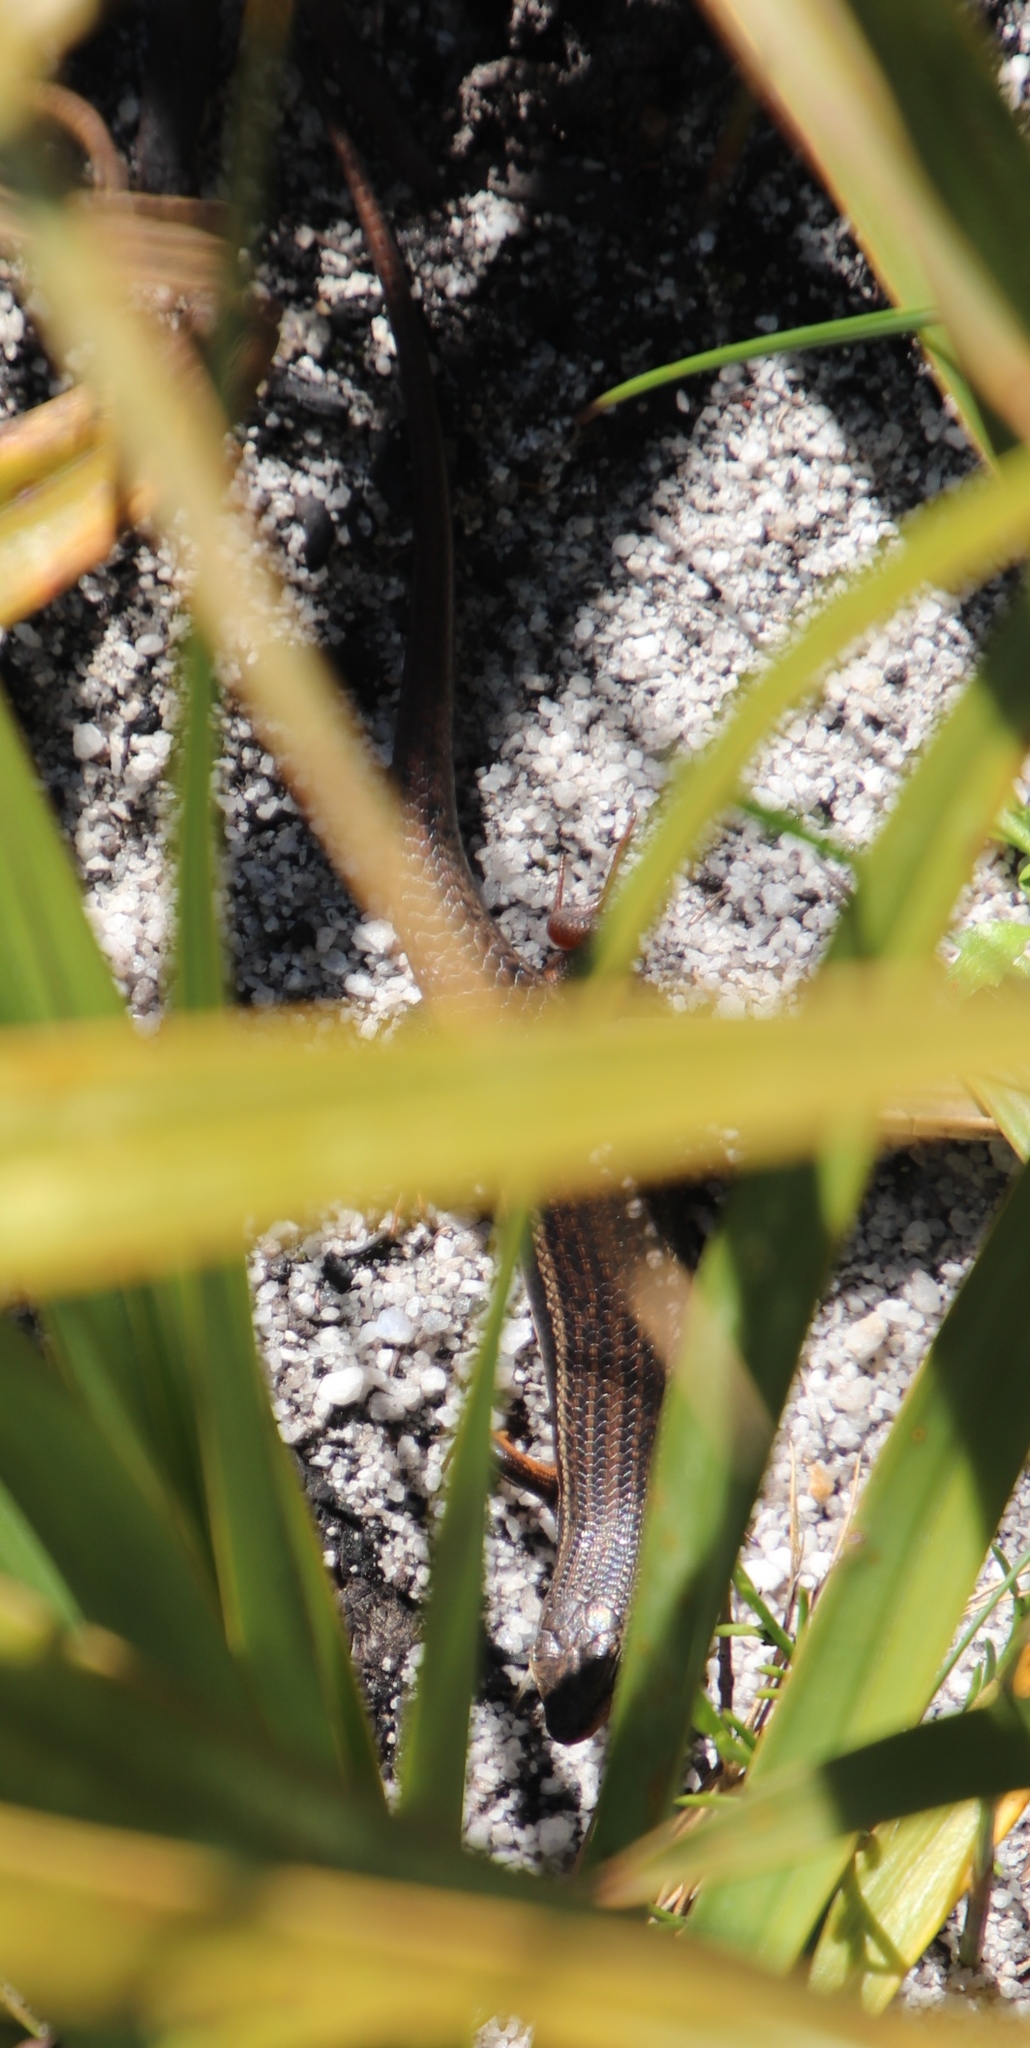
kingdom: Animalia
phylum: Chordata
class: Squamata
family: Scincidae
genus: Trachylepis
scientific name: Trachylepis homalocephala
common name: Red-sided skink
